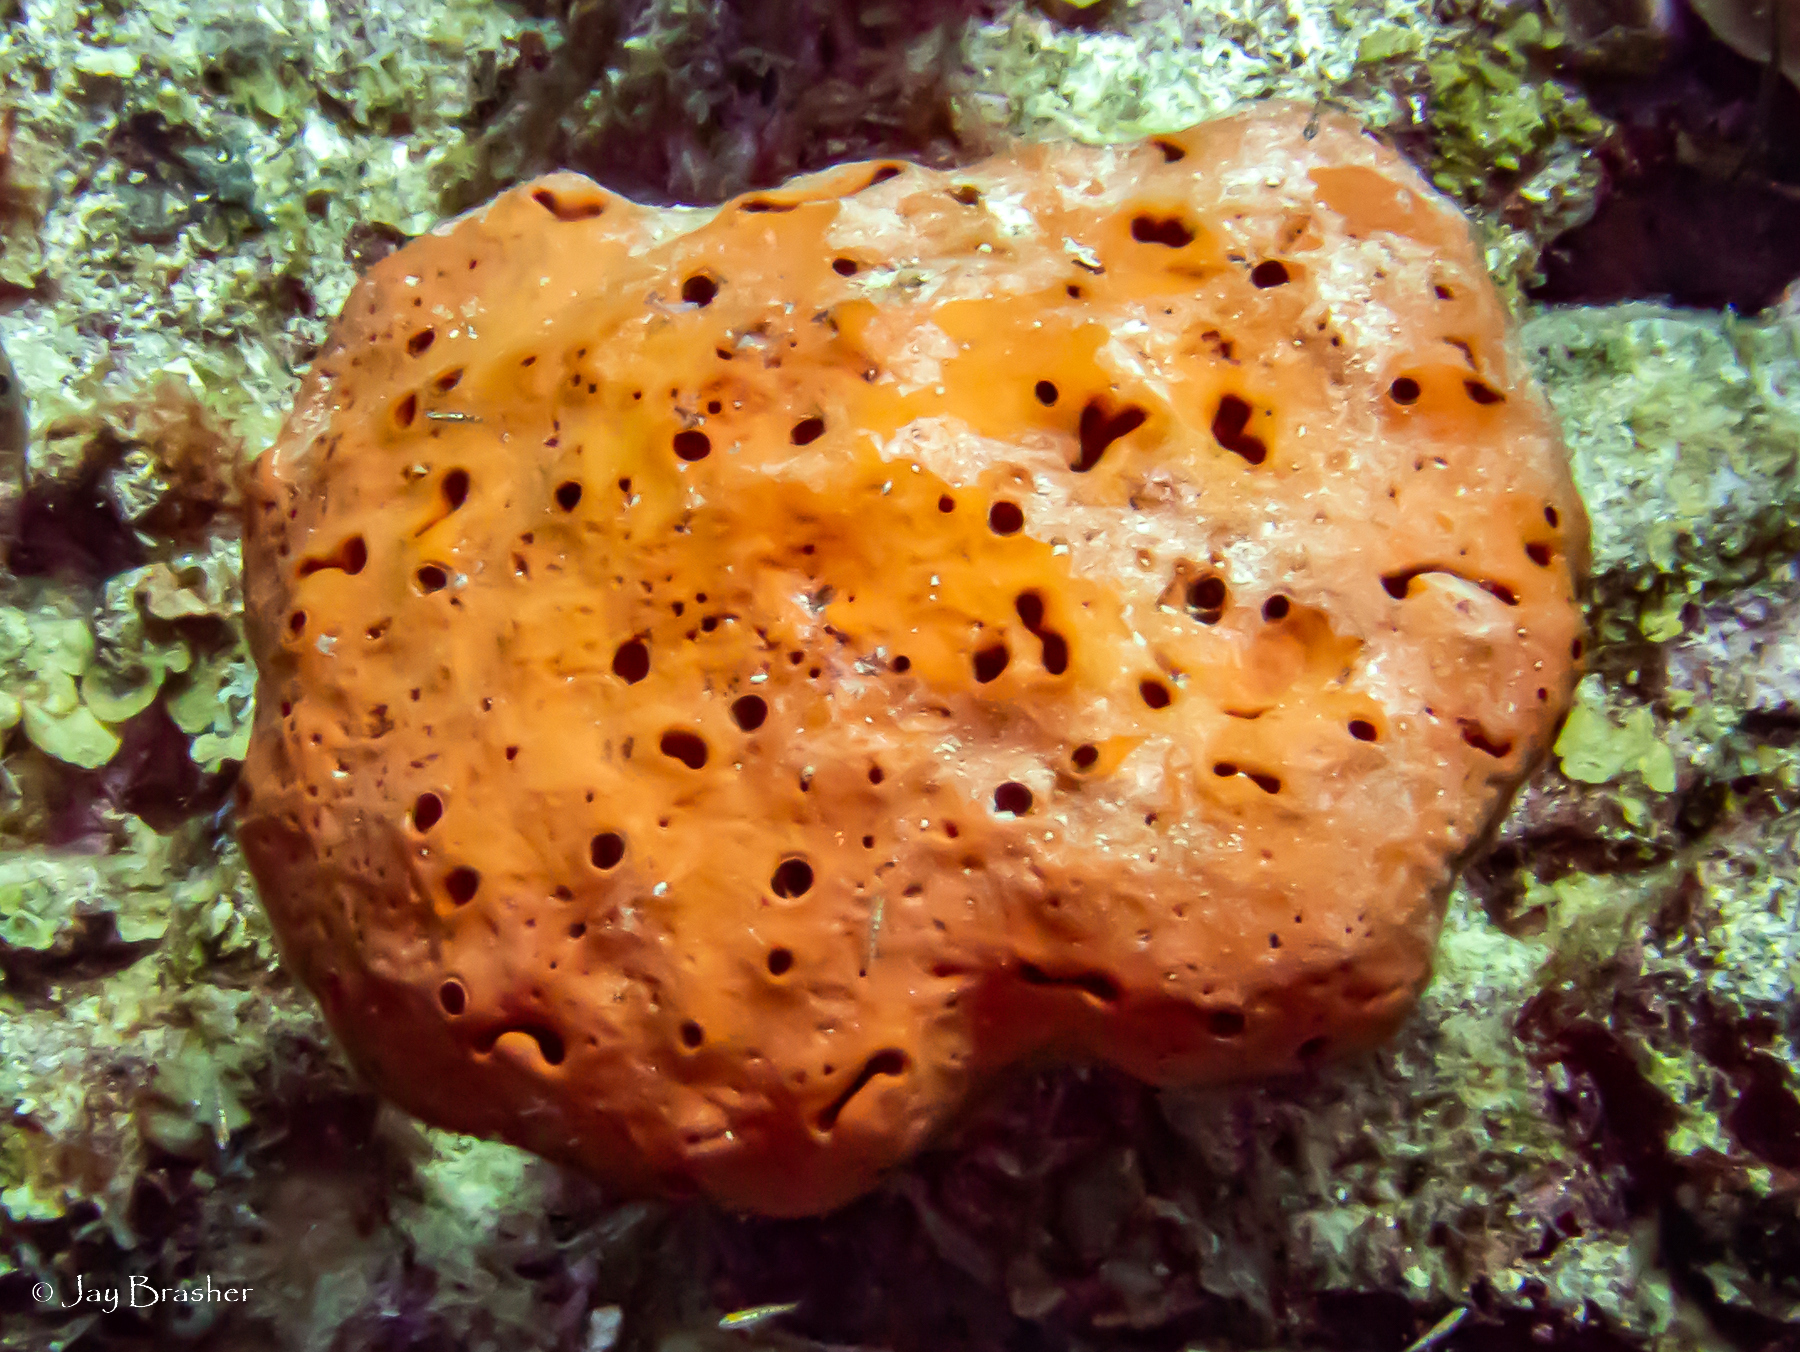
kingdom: Animalia
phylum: Porifera
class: Demospongiae
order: Agelasida
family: Agelasidae
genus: Agelas
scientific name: Agelas sventres
